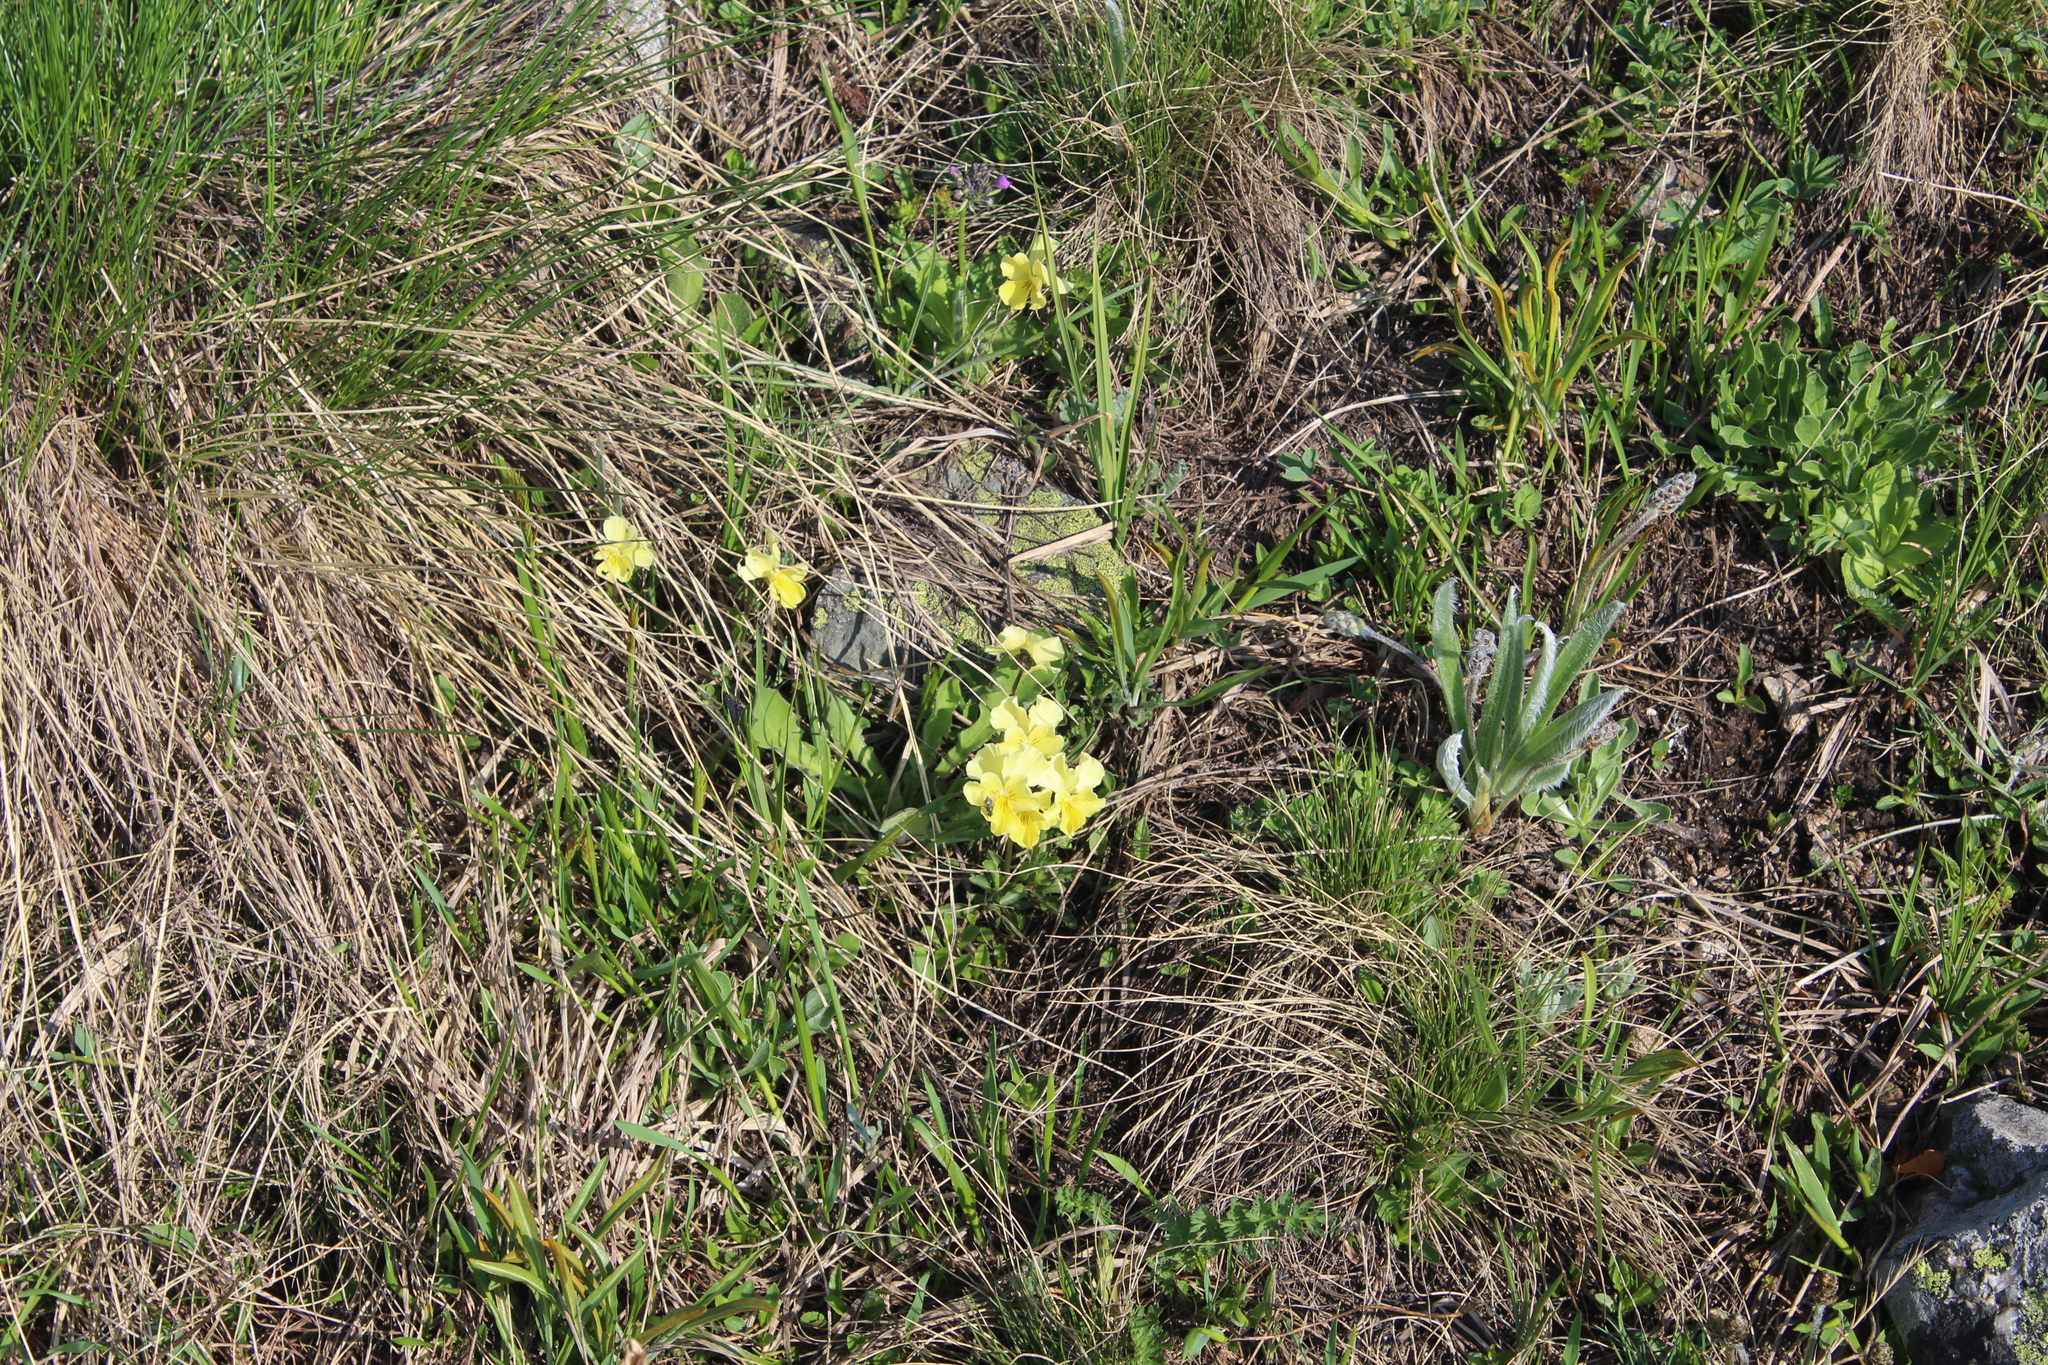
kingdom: Plantae
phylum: Tracheophyta
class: Magnoliopsida
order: Malpighiales
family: Violaceae
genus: Viola
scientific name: Viola oreades
